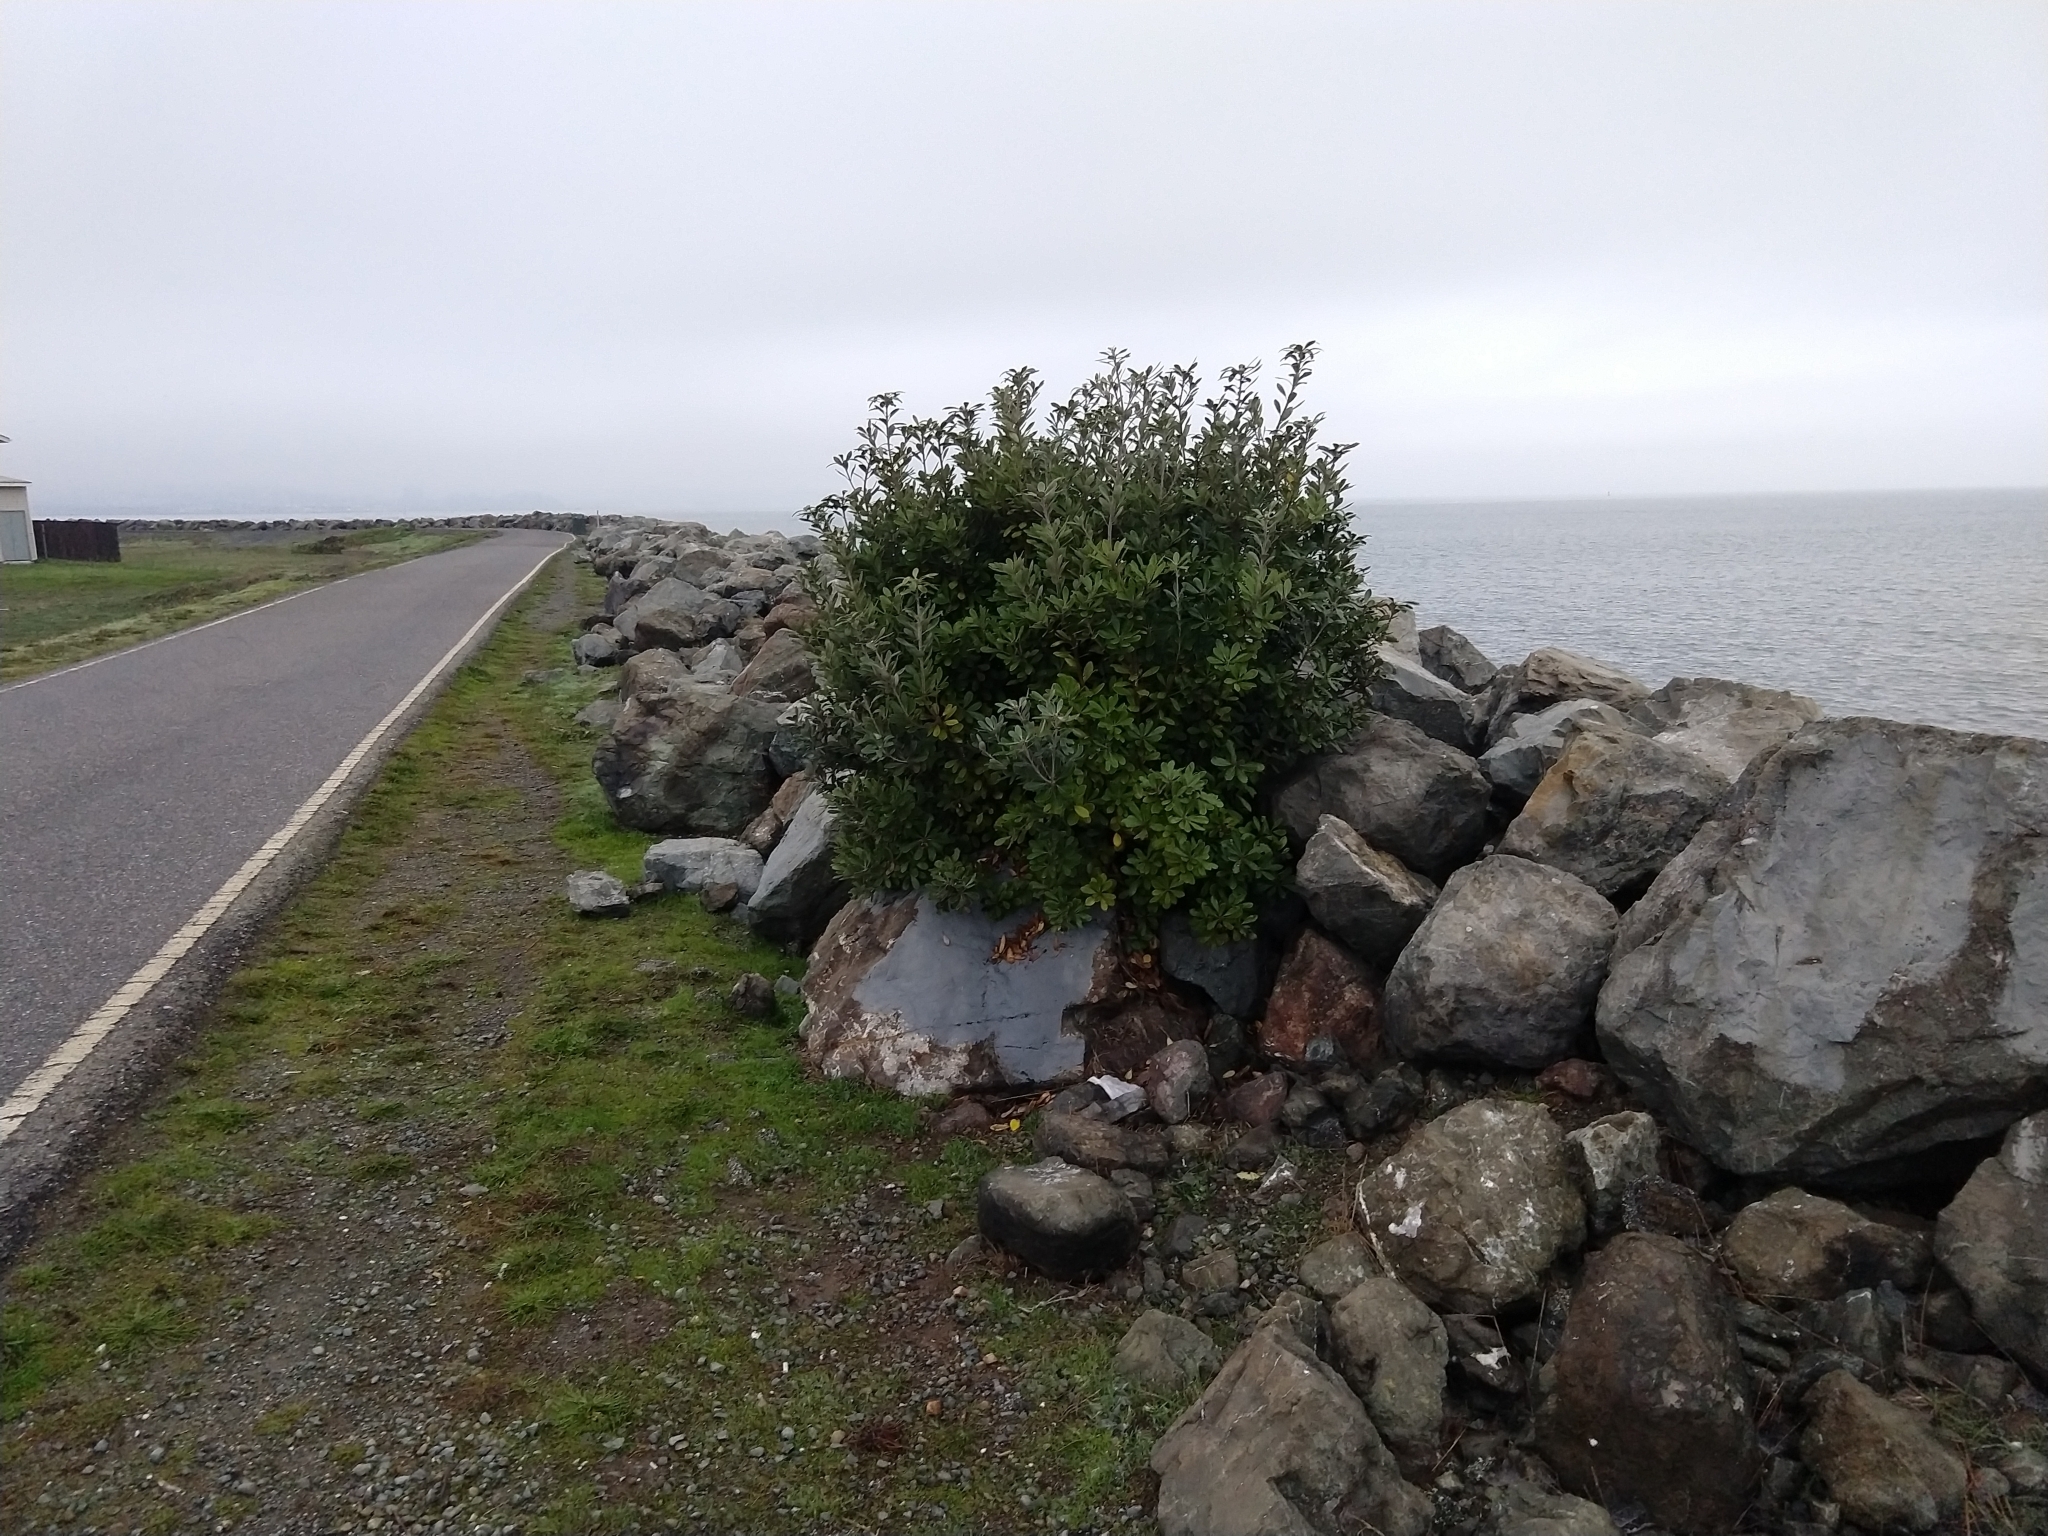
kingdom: Plantae
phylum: Tracheophyta
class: Magnoliopsida
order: Apiales
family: Pittosporaceae
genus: Pittosporum
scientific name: Pittosporum crassifolium
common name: Karo
